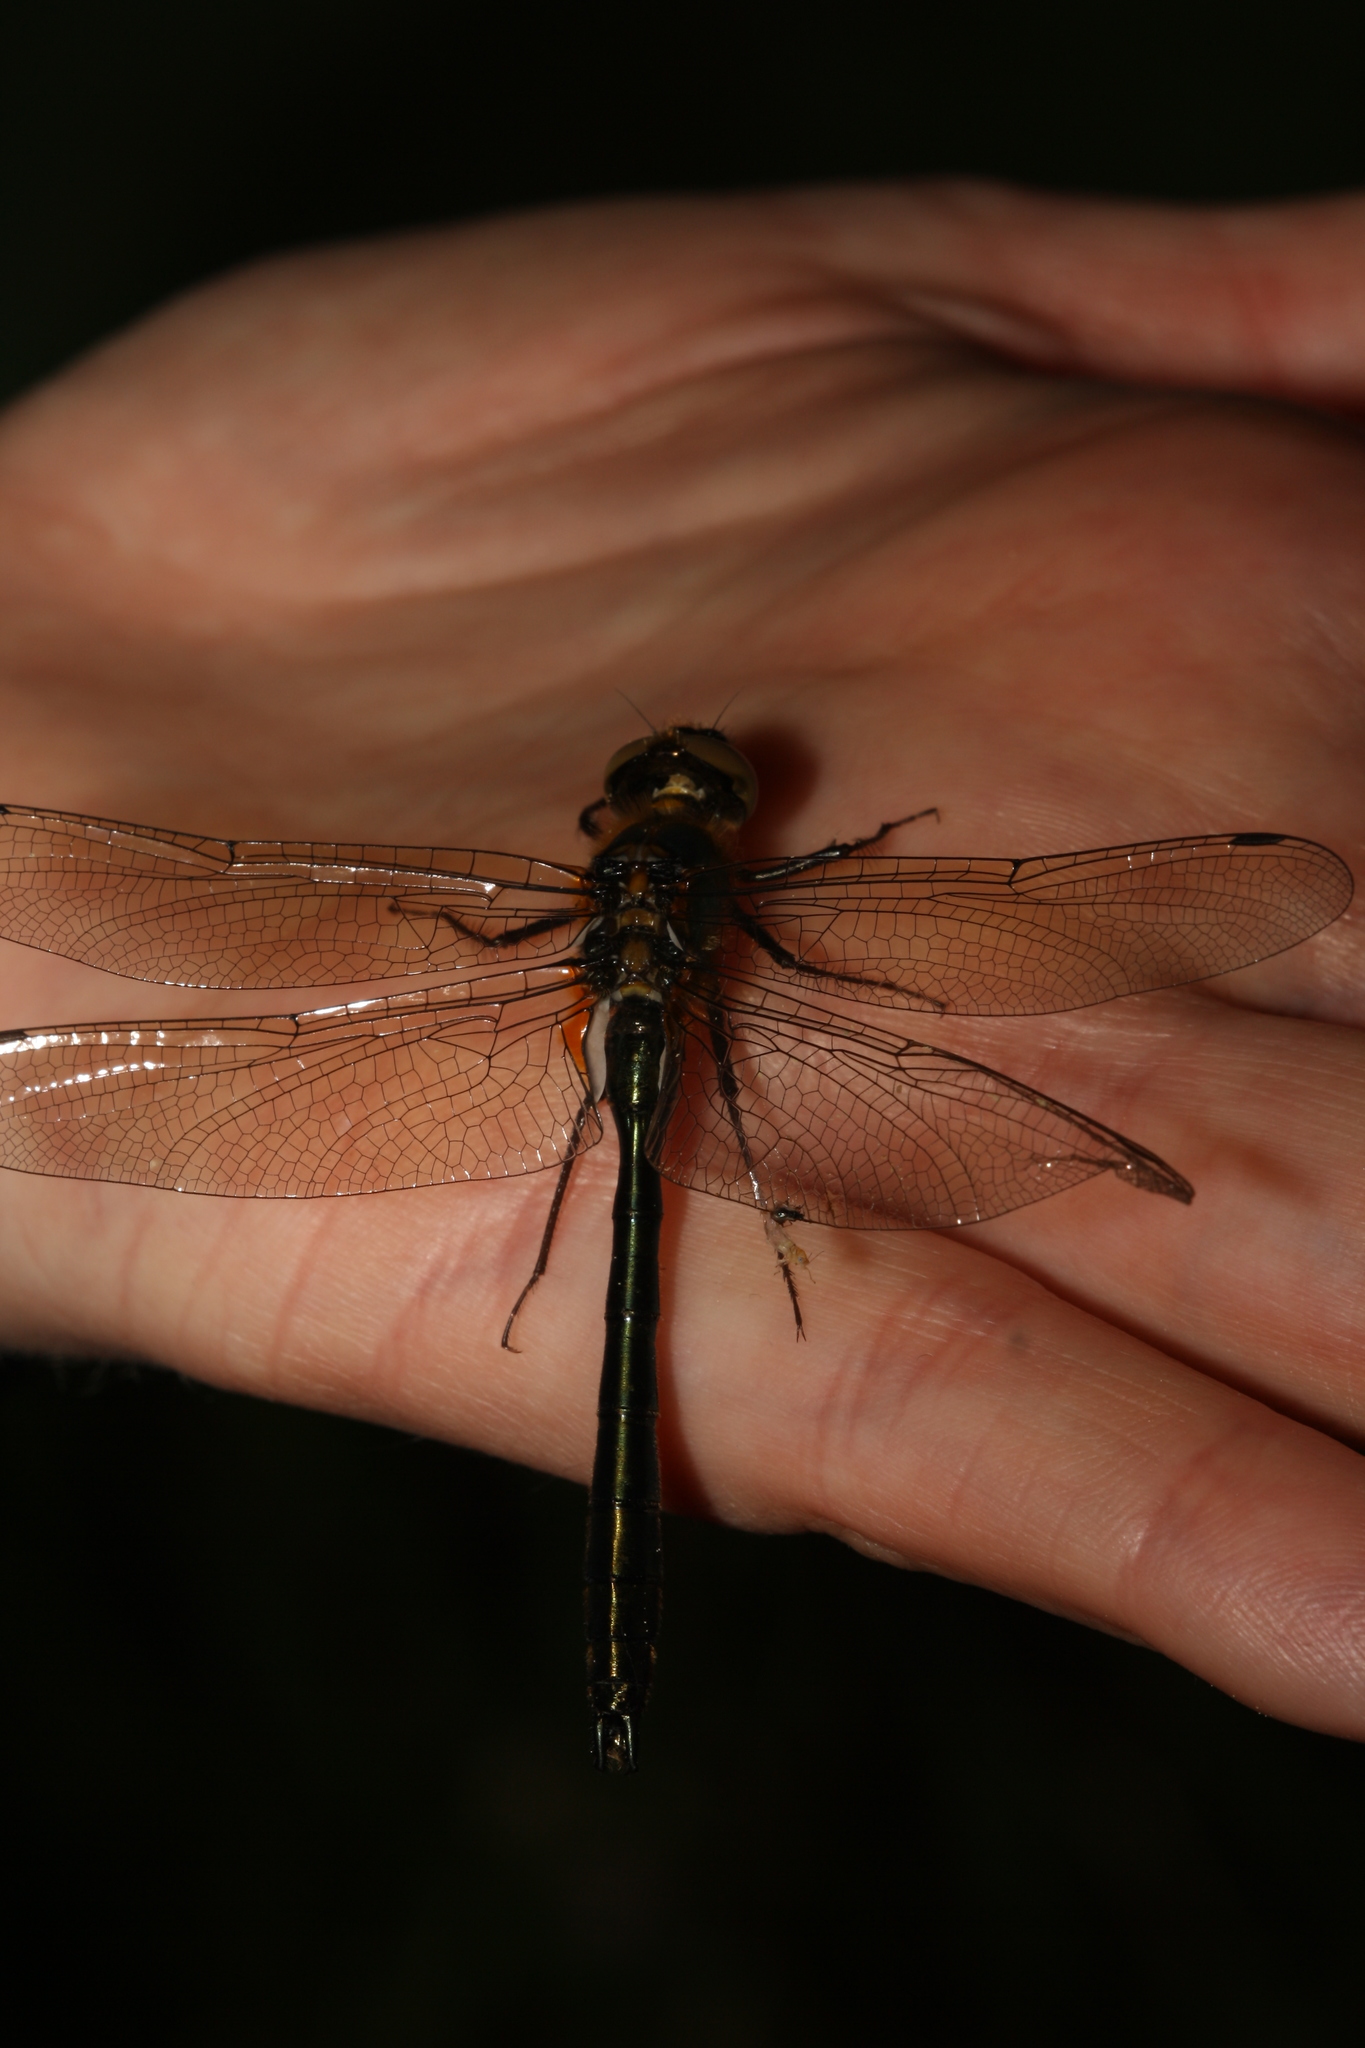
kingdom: Animalia
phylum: Arthropoda
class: Insecta
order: Odonata
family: Corduliidae
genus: Cordulia
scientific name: Cordulia aenea
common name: Downy emerald
